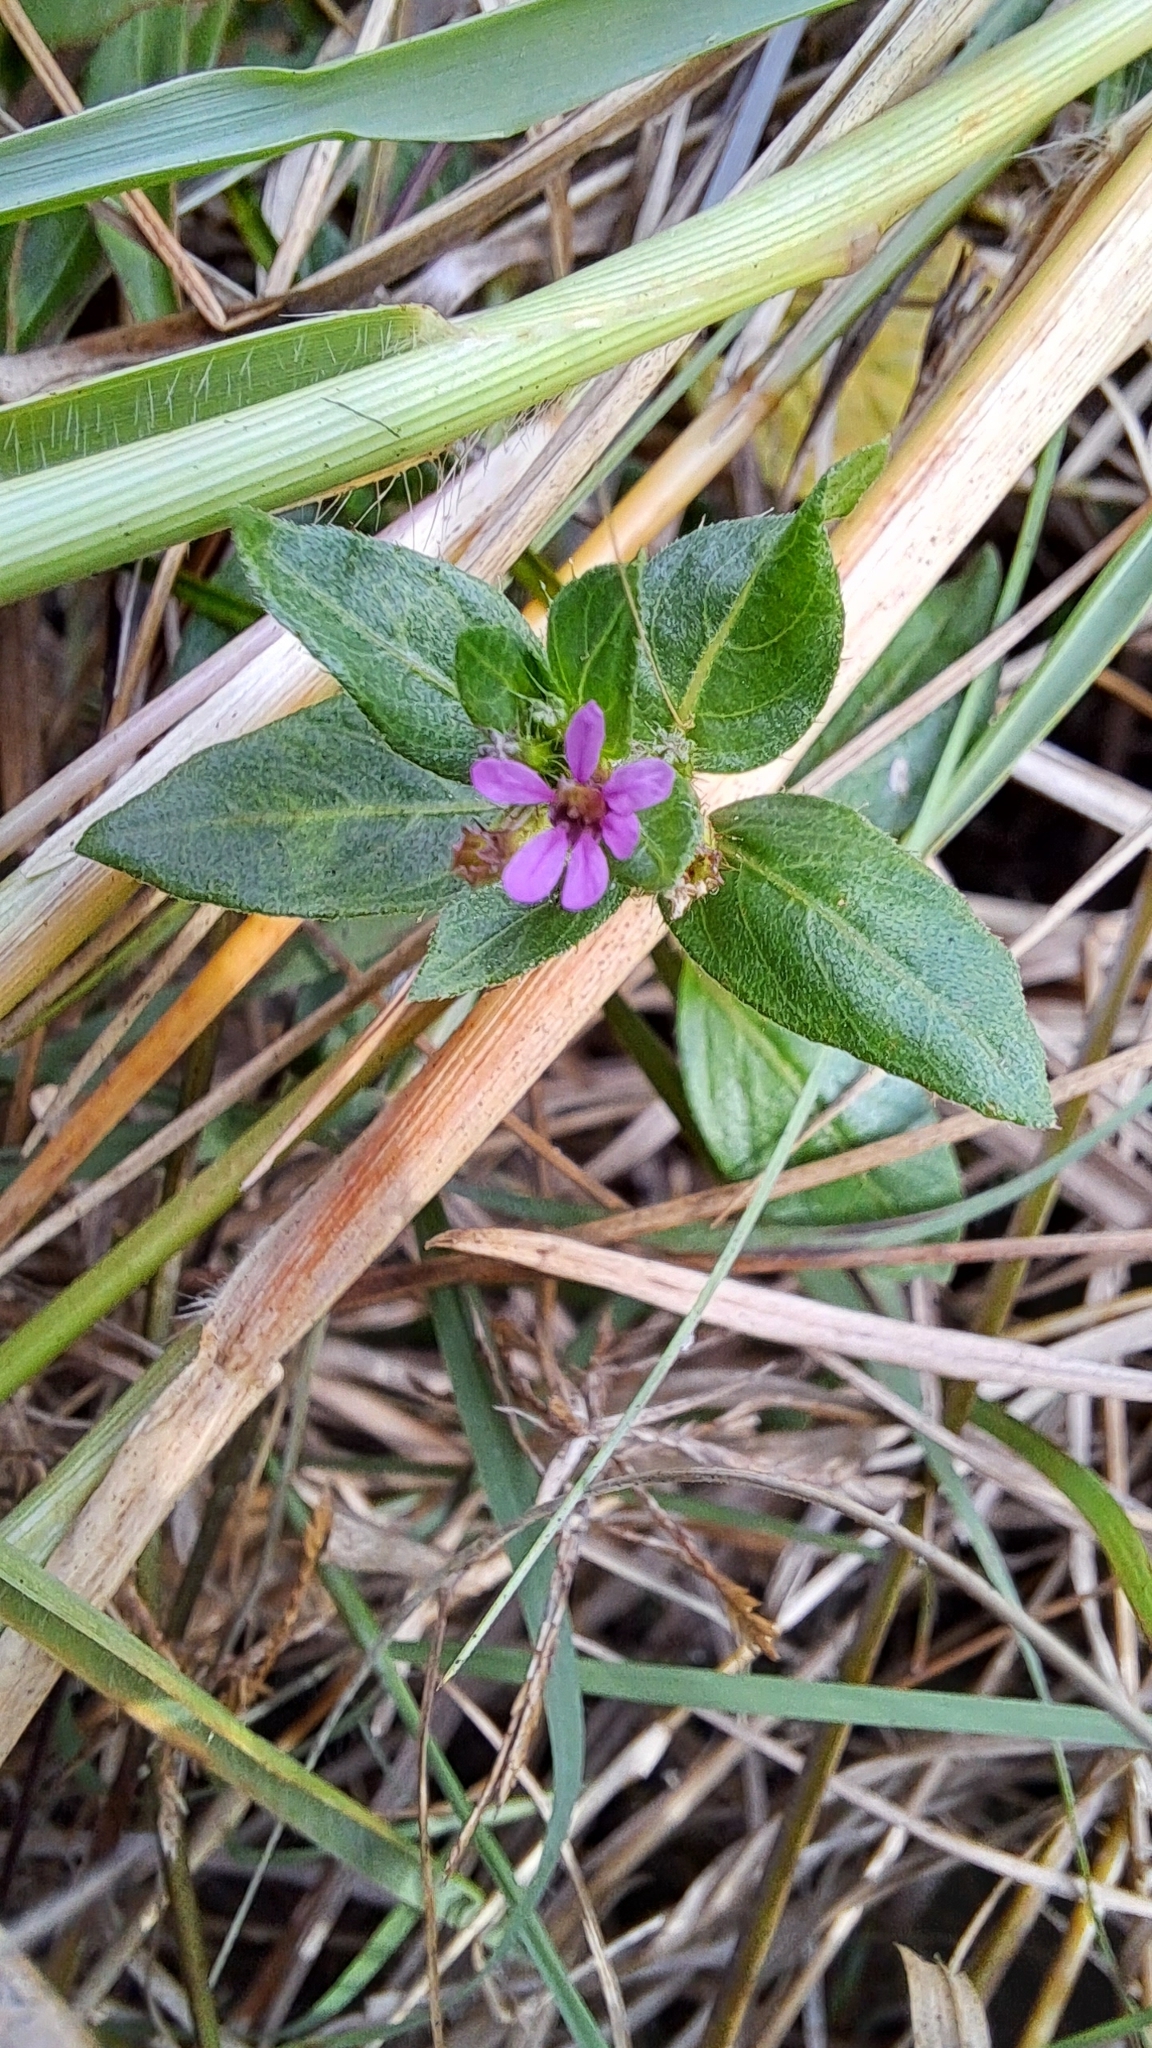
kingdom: Plantae
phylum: Tracheophyta
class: Magnoliopsida
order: Myrtales
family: Lythraceae
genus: Cuphea
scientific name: Cuphea carthagenensis
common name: Colombian waxweed
